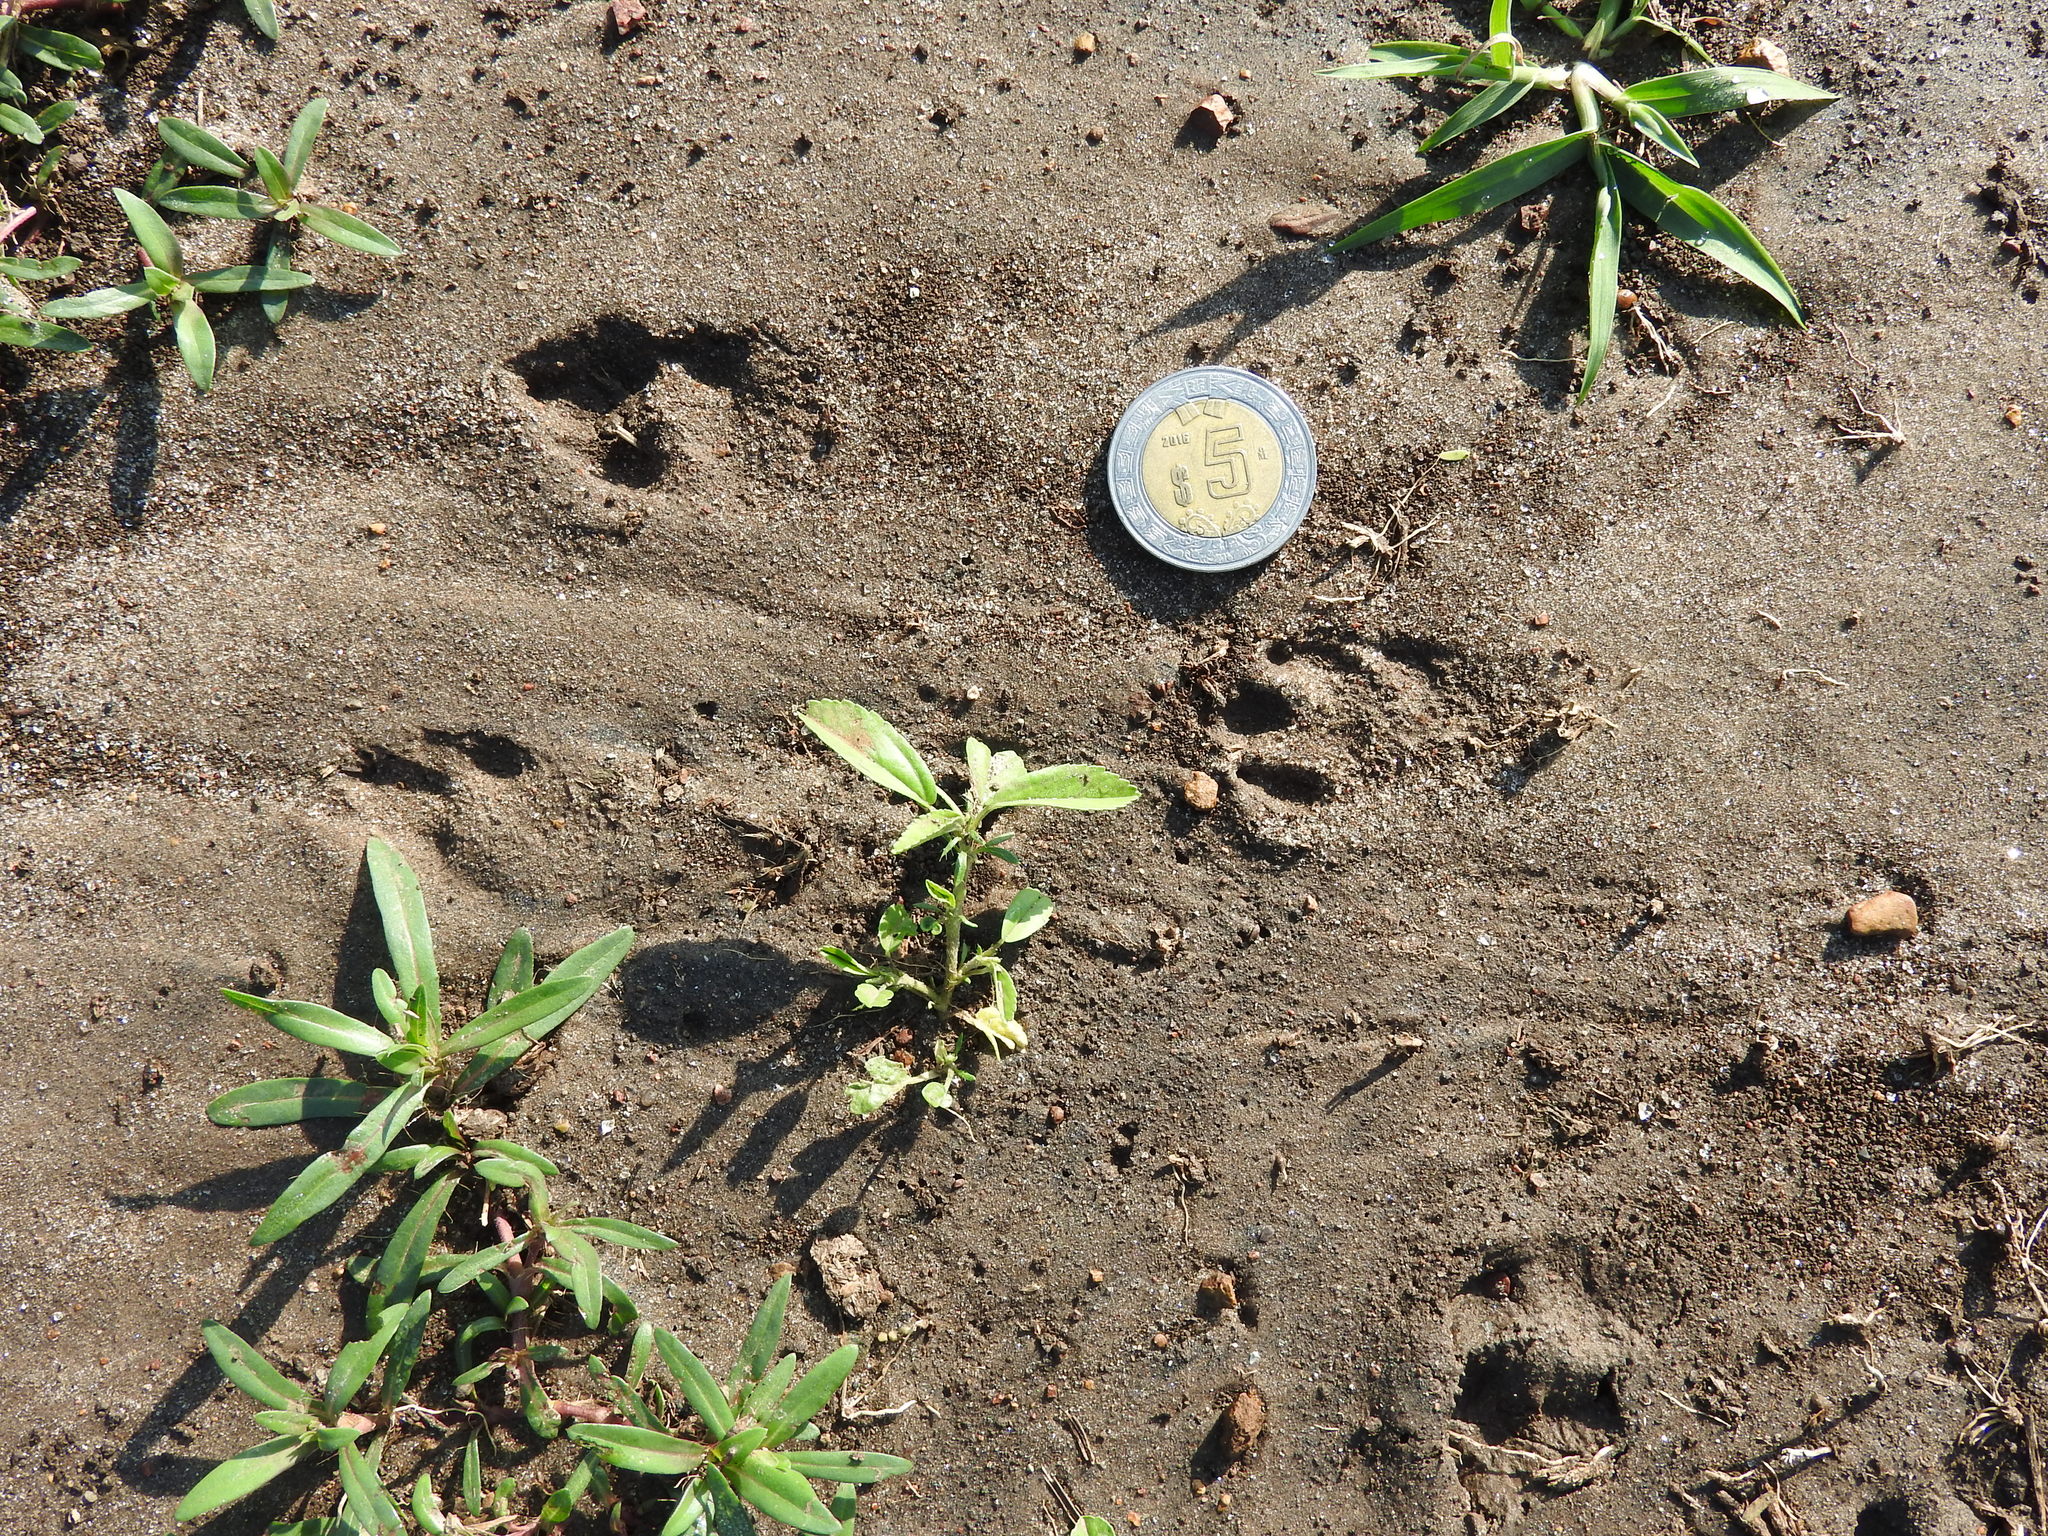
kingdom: Animalia
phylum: Chordata
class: Mammalia
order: Lagomorpha
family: Leporidae
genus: Sylvilagus
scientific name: Sylvilagus floridanus
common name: Eastern cottontail
